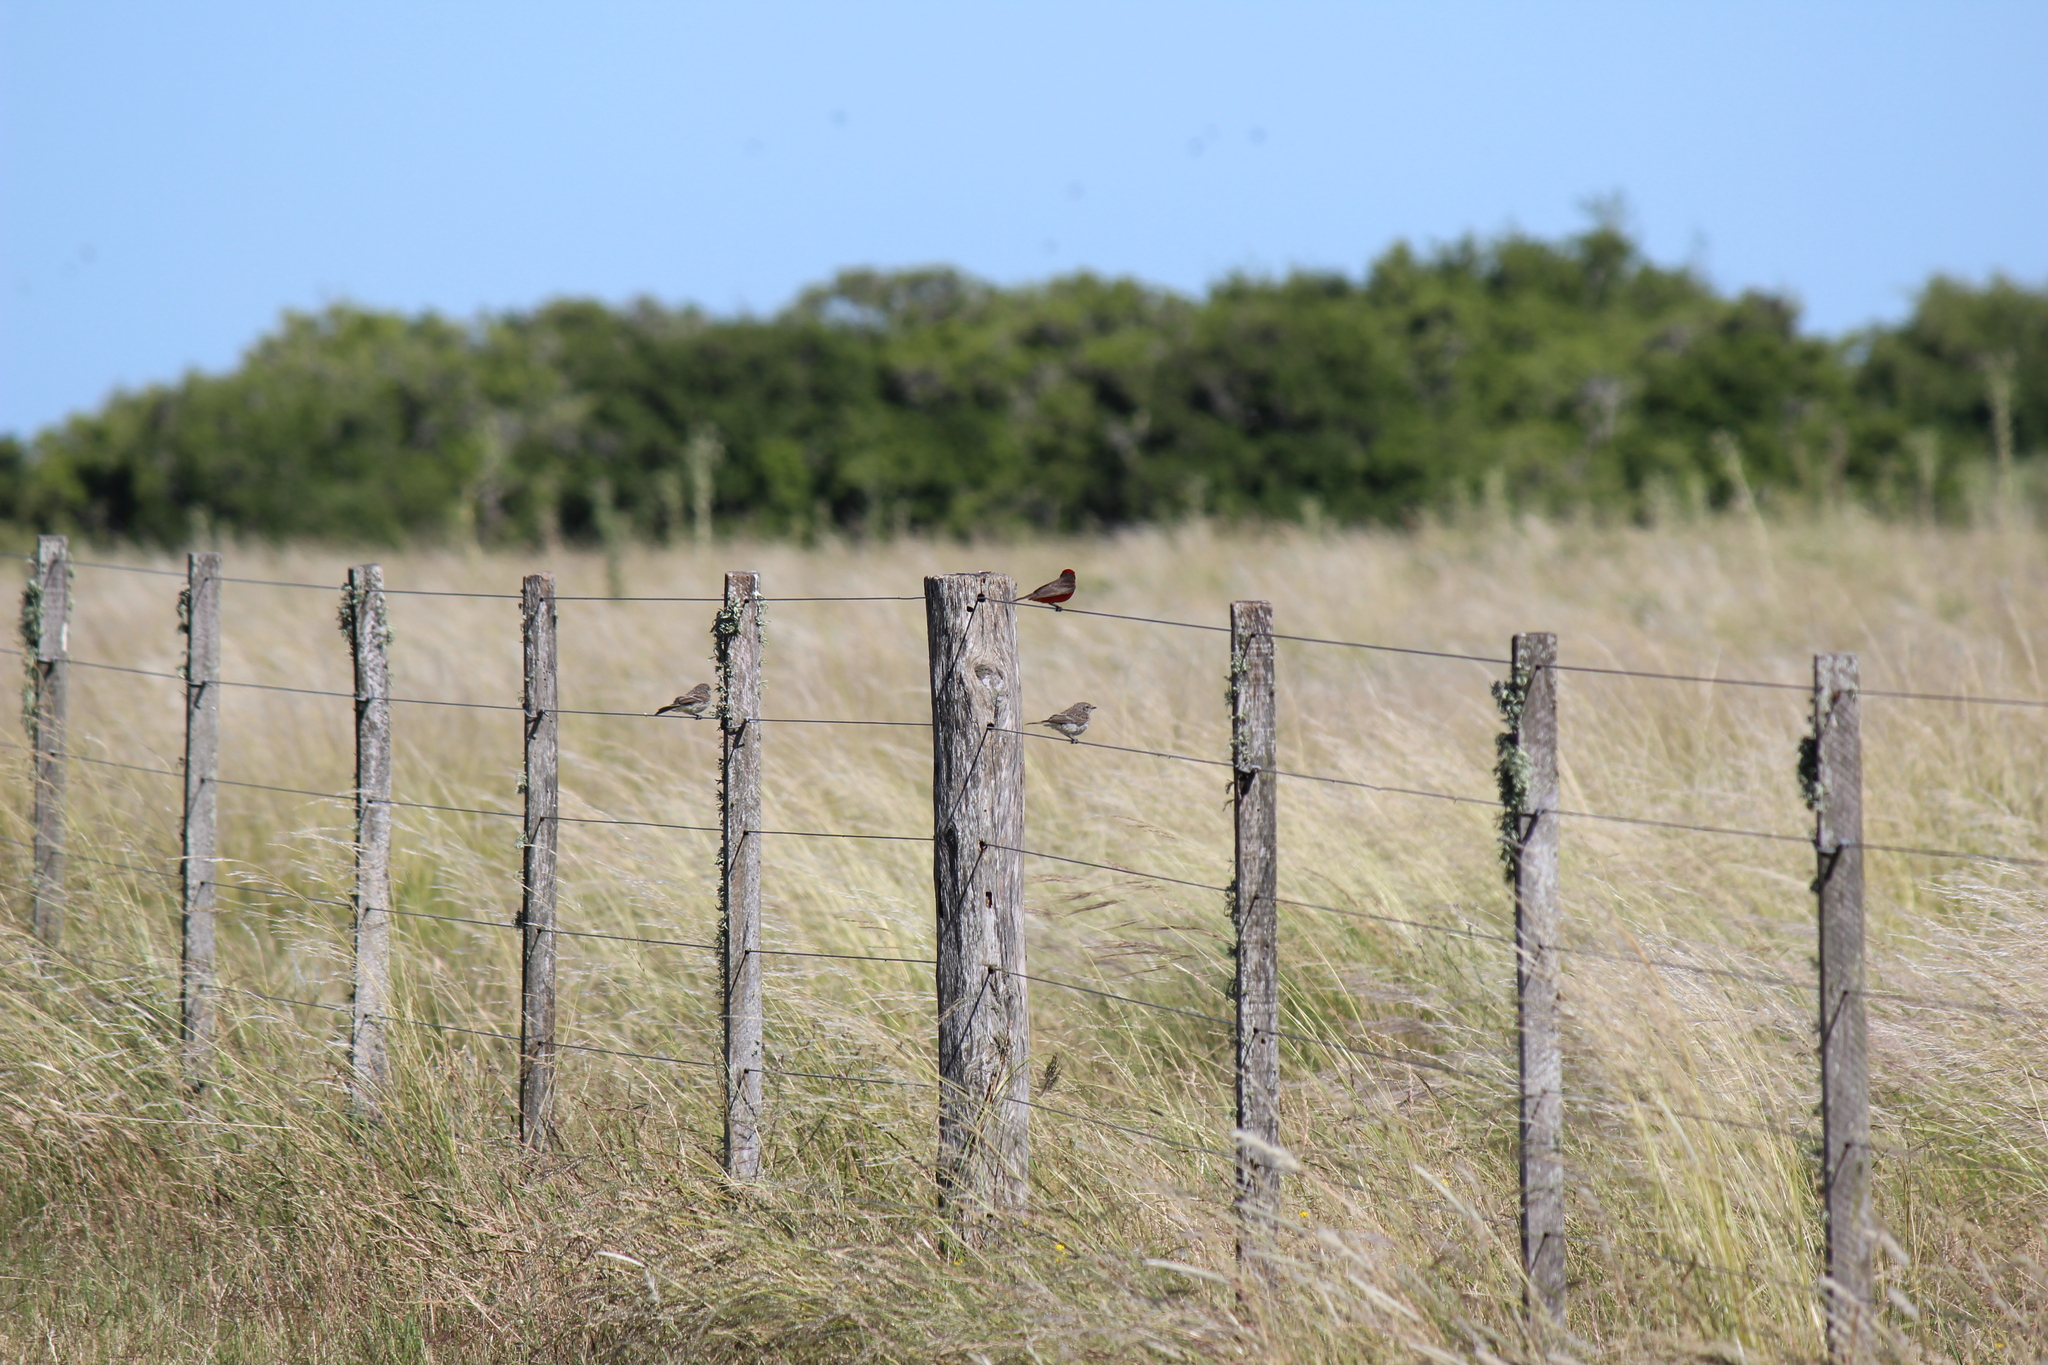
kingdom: Animalia
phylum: Chordata
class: Aves
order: Passeriformes
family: Tyrannidae
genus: Pyrocephalus
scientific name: Pyrocephalus rubinus
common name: Vermilion flycatcher
